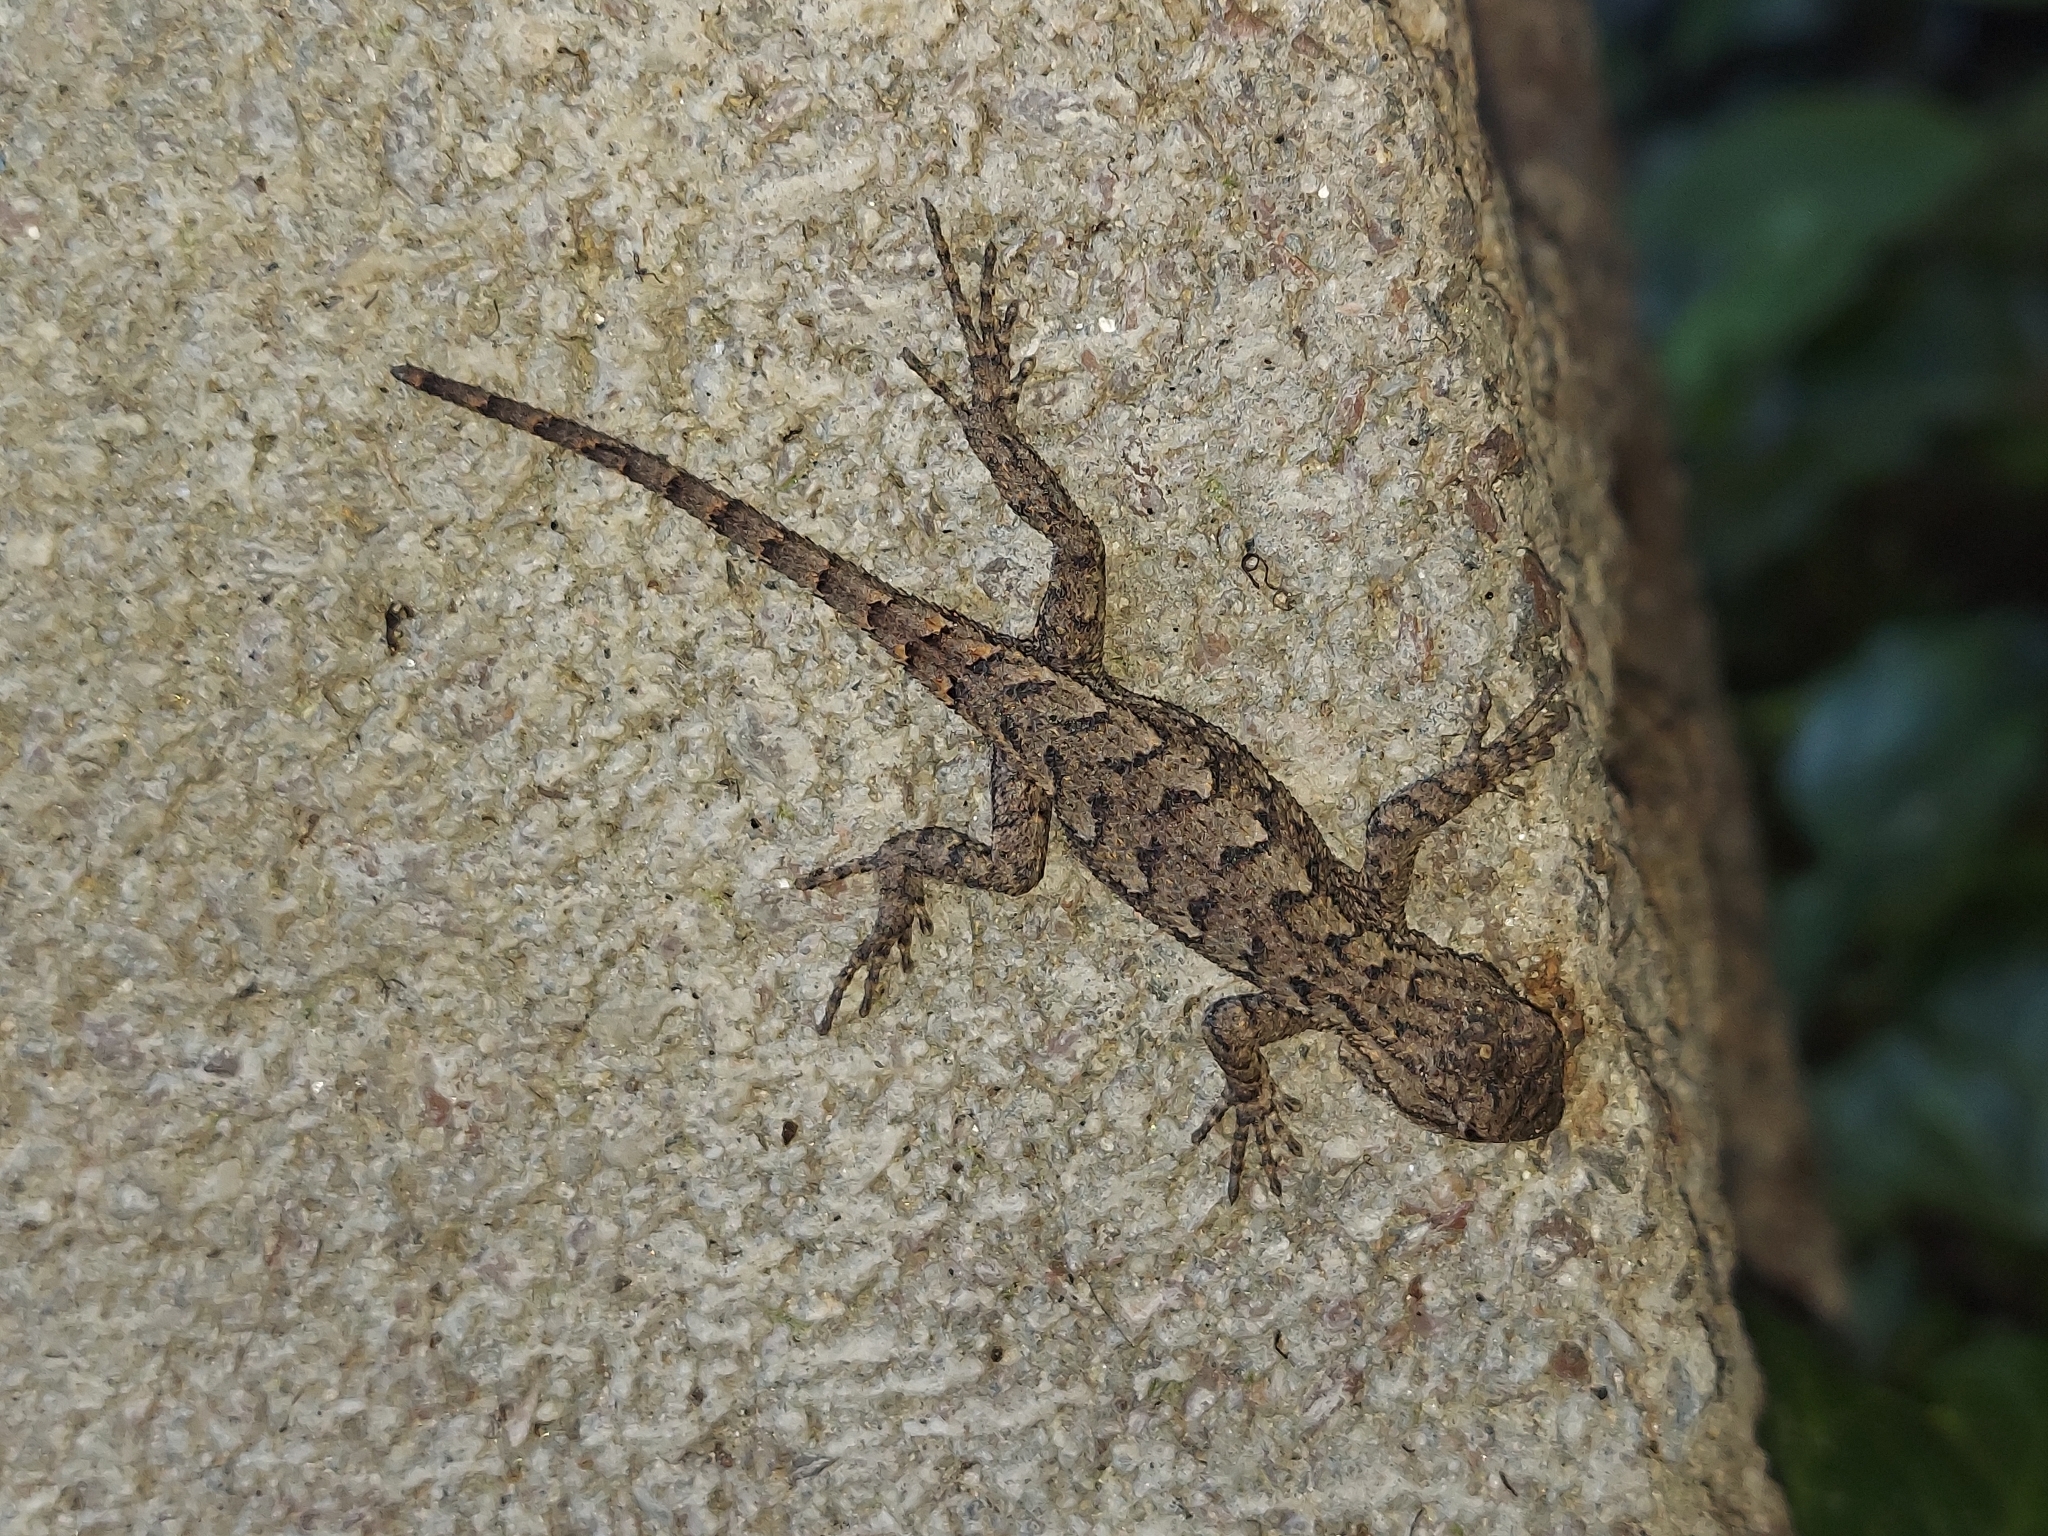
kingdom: Animalia
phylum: Chordata
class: Squamata
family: Phrynosomatidae
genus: Sceloporus
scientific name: Sceloporus undulatus
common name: Eastern fence lizard
